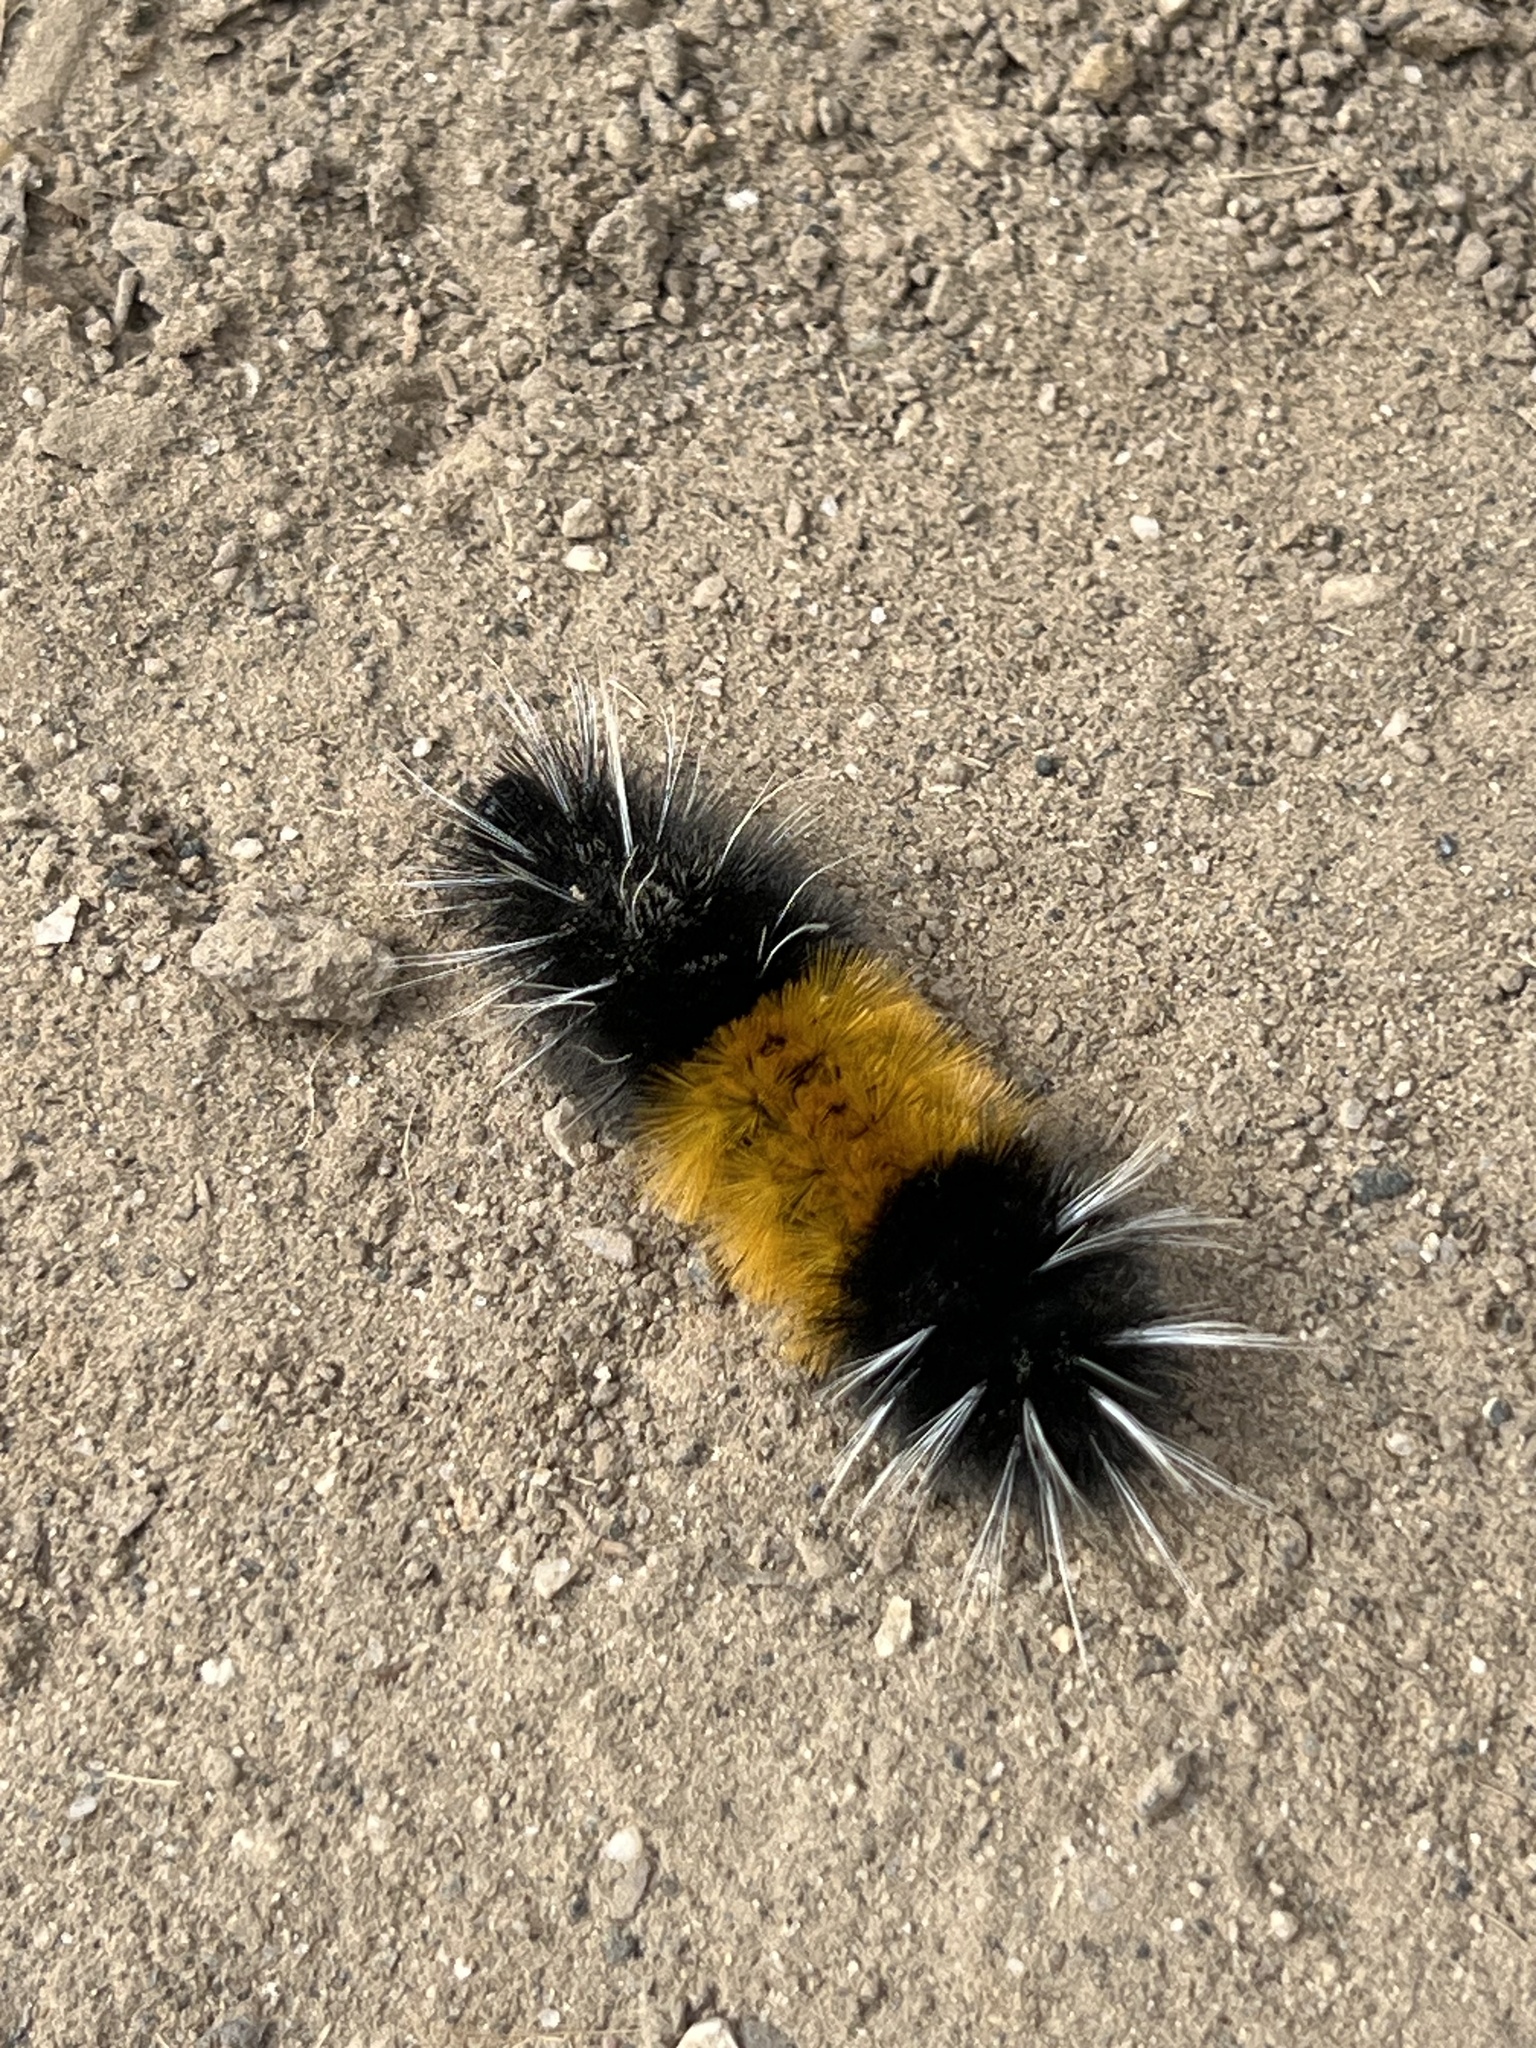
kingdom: Animalia
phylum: Arthropoda
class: Insecta
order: Lepidoptera
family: Erebidae
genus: Lophocampa
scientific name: Lophocampa maculata
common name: Spotted tussock moth
